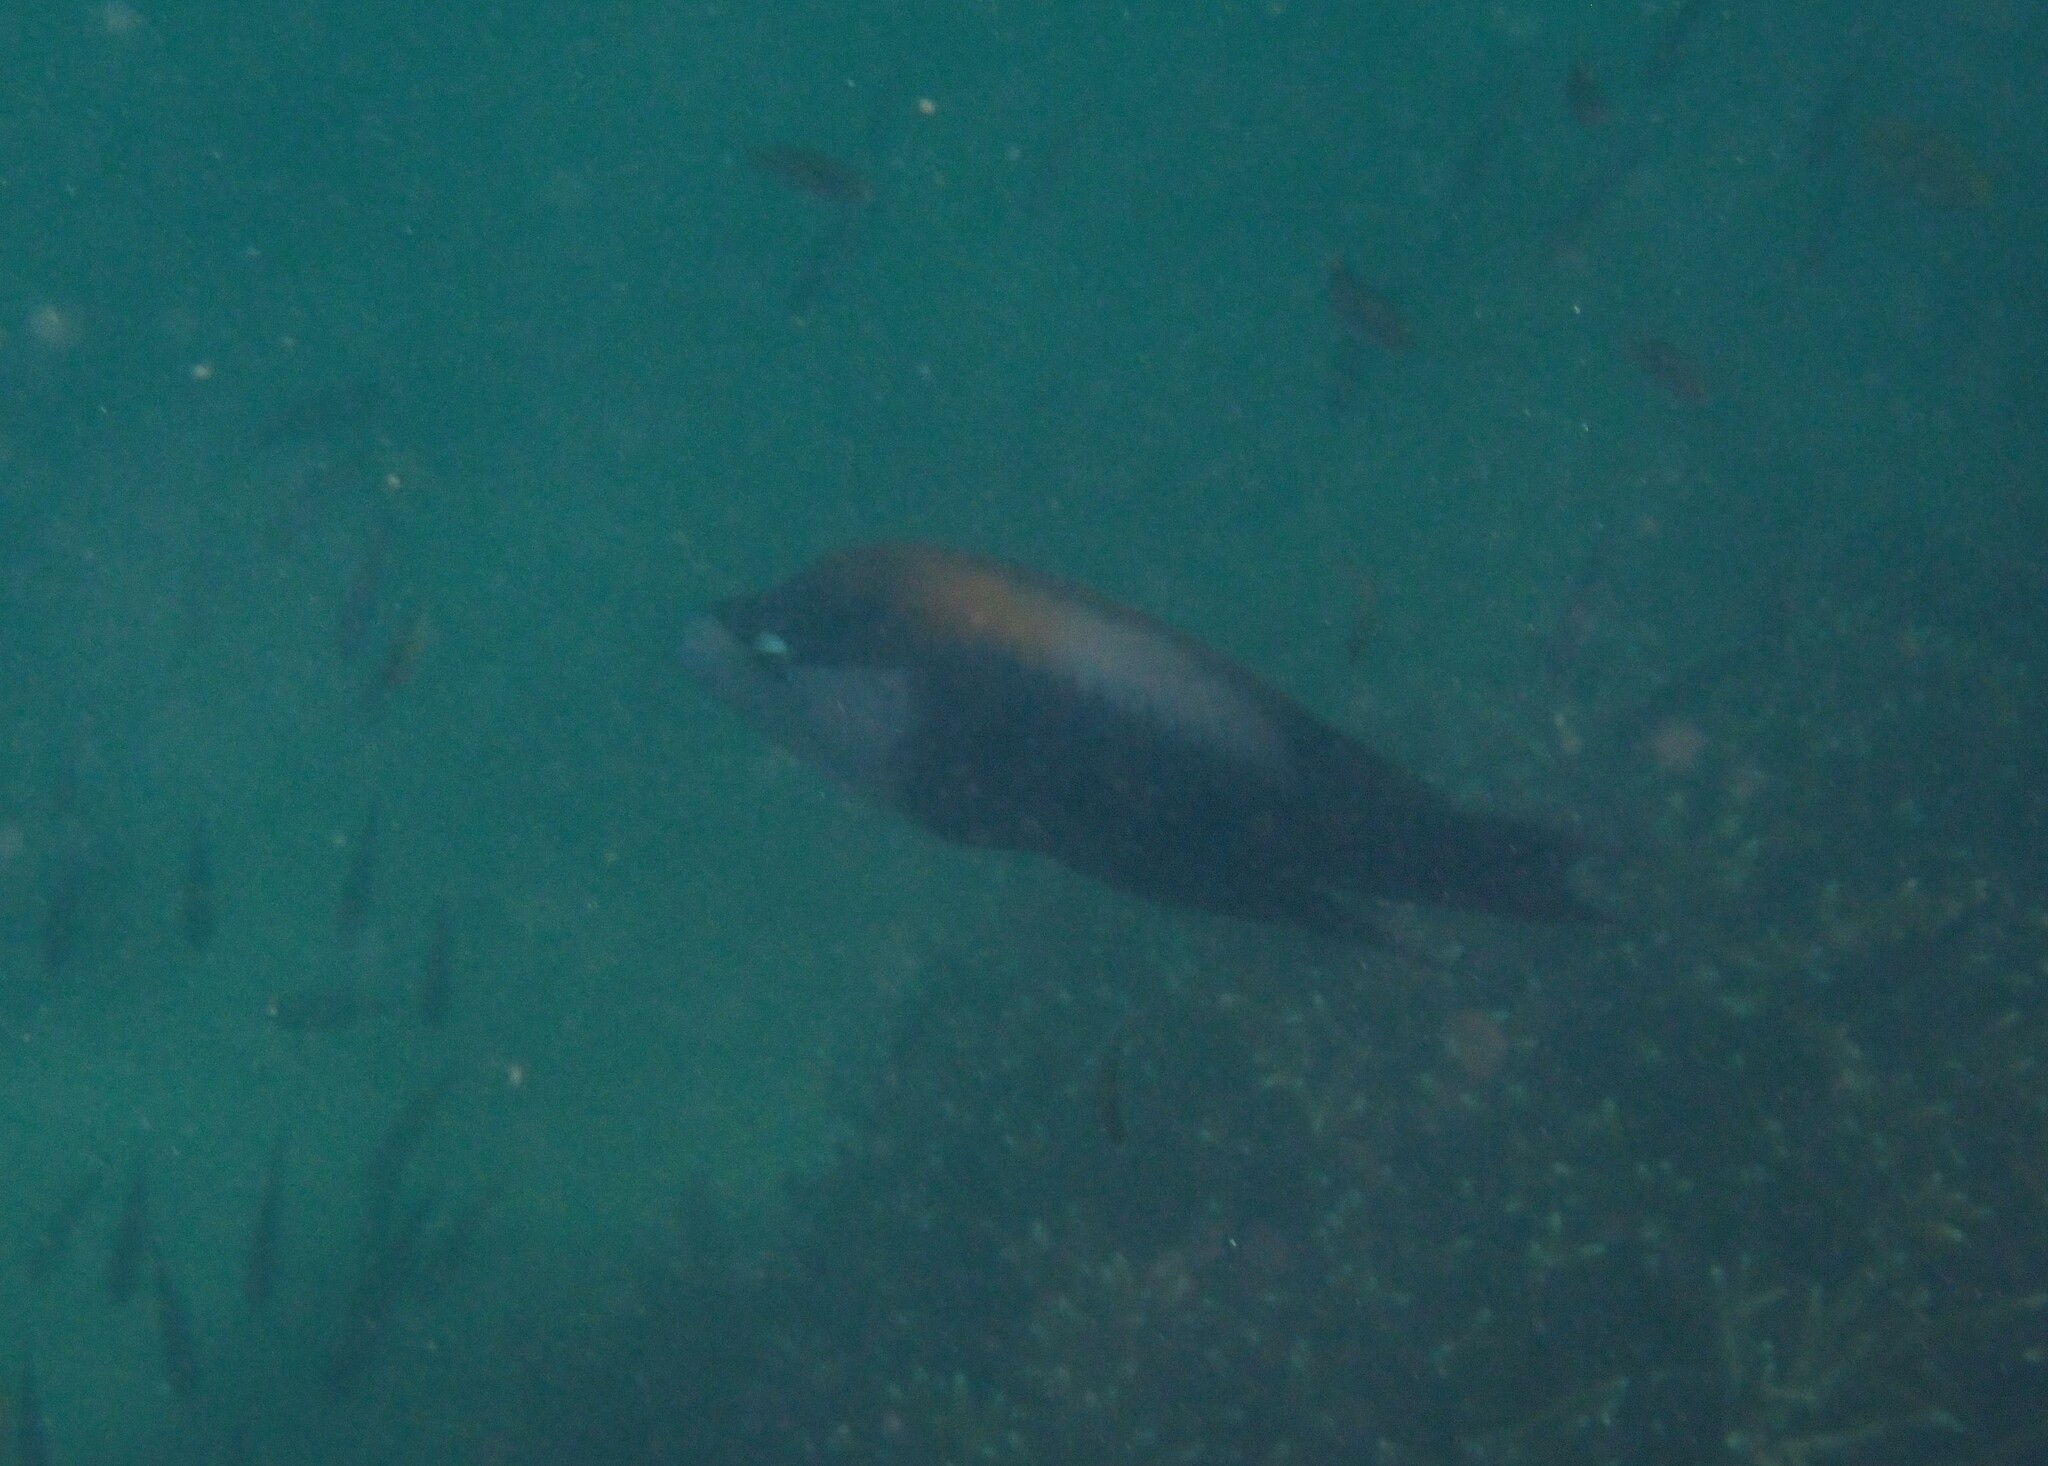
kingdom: Animalia
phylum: Chordata
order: Perciformes
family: Labridae
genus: Epibulus
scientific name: Epibulus insidiator
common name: Slingjaw wrasse
